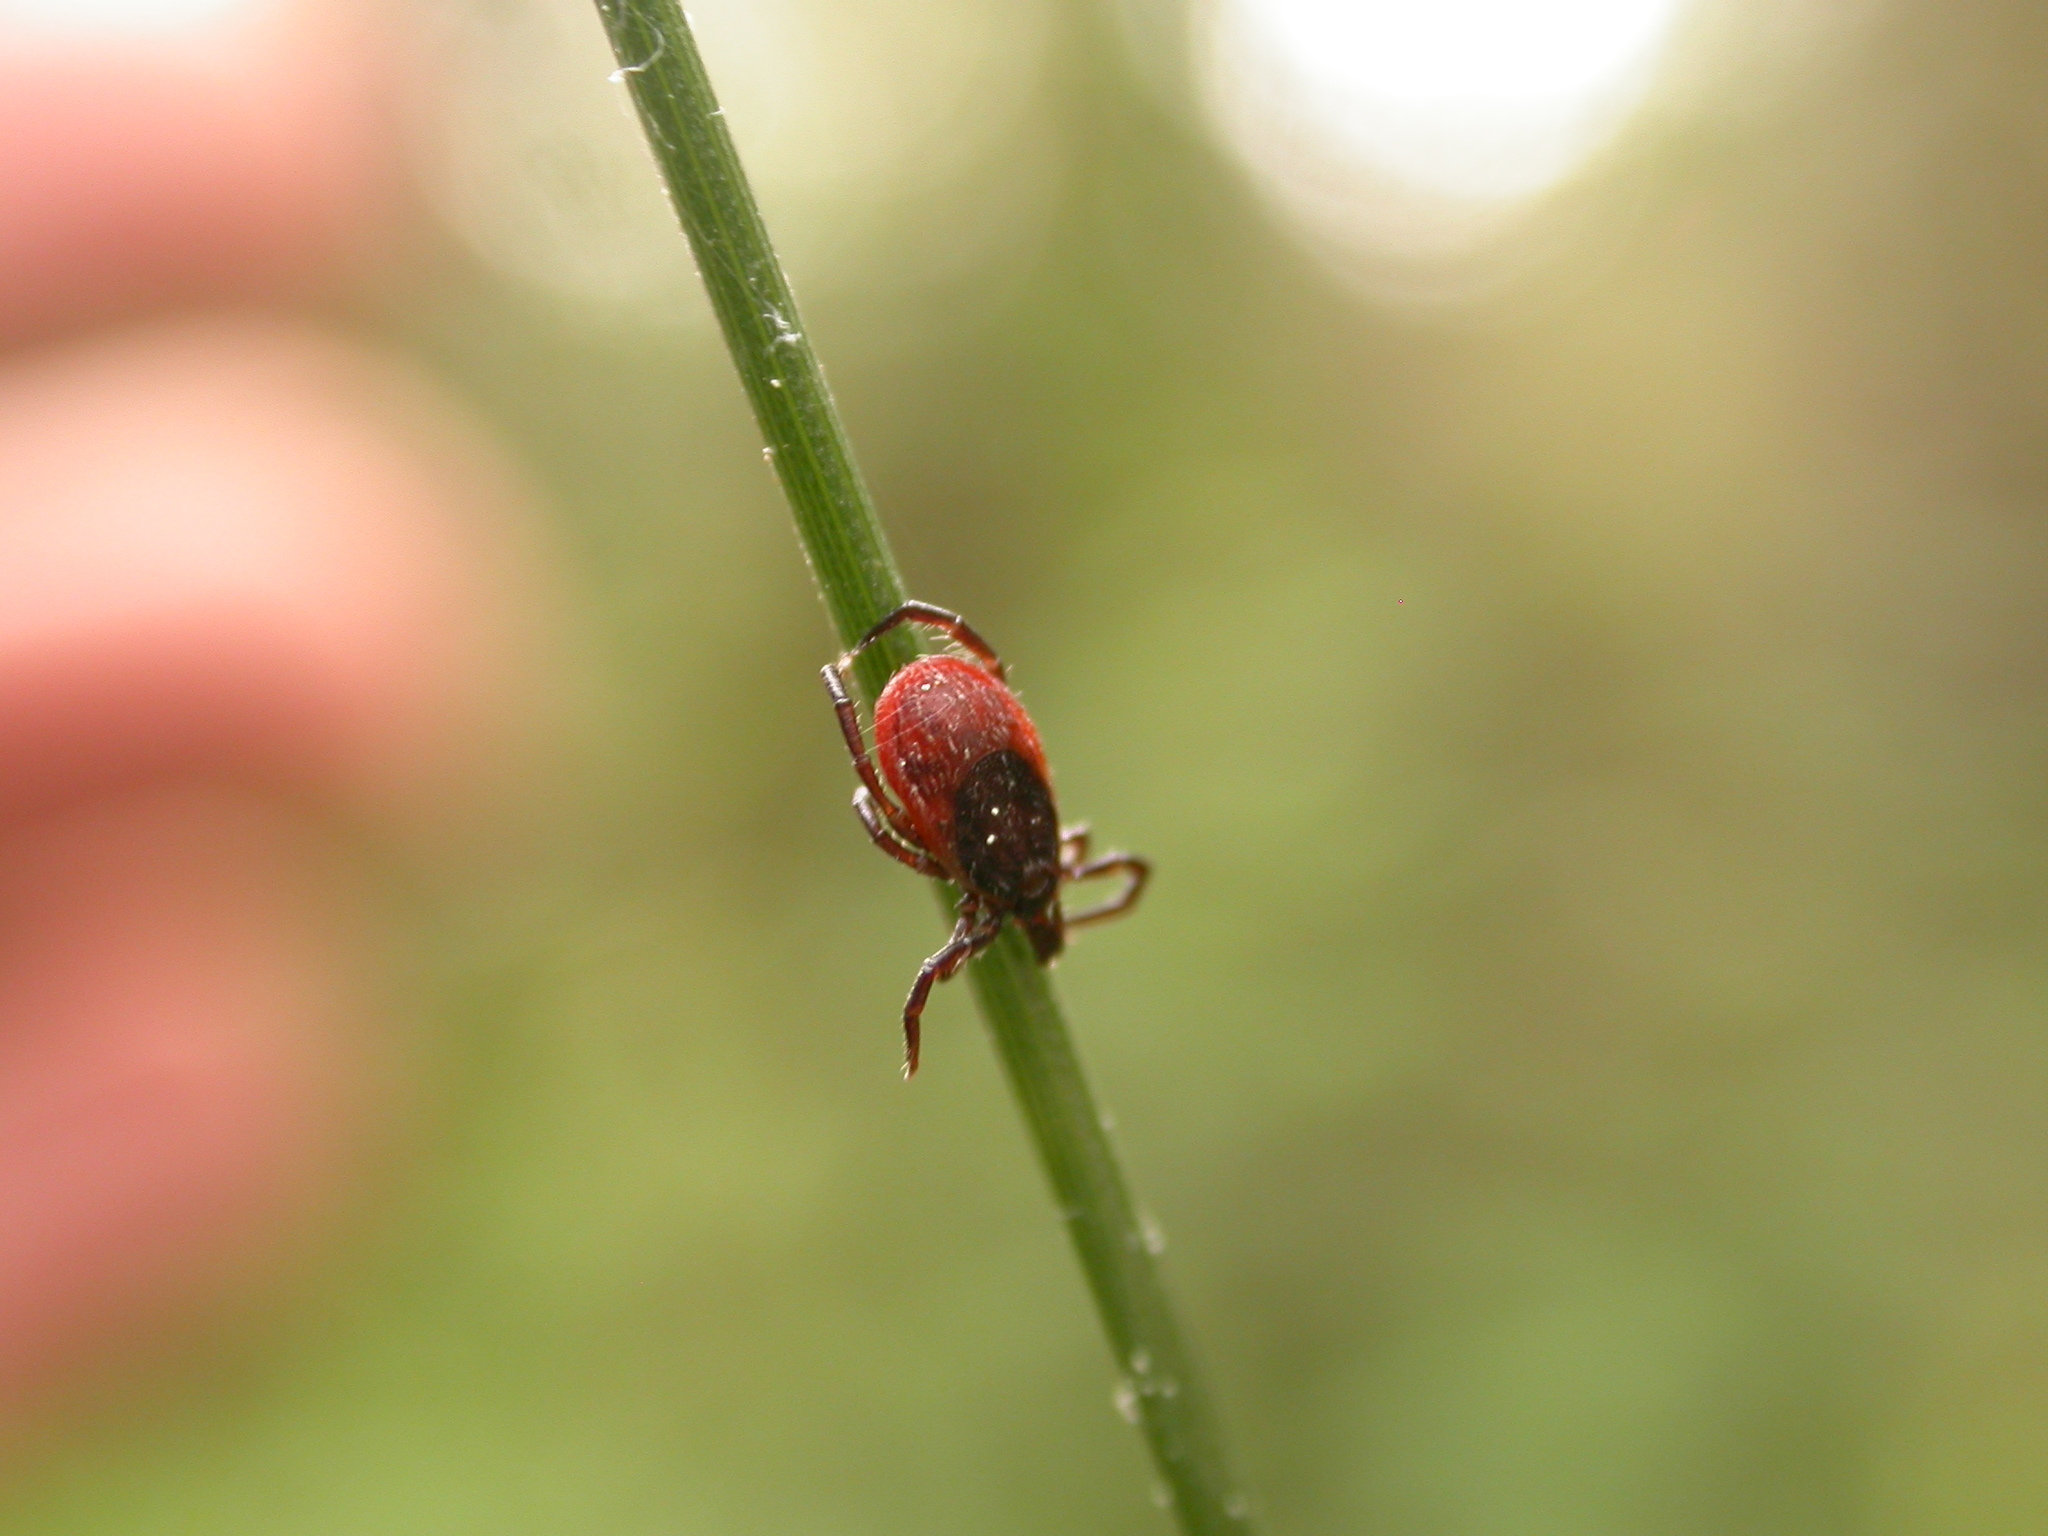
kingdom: Animalia
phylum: Arthropoda
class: Arachnida
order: Ixodida
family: Ixodidae
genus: Ixodes
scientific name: Ixodes ricinus
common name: Castor bean tick
